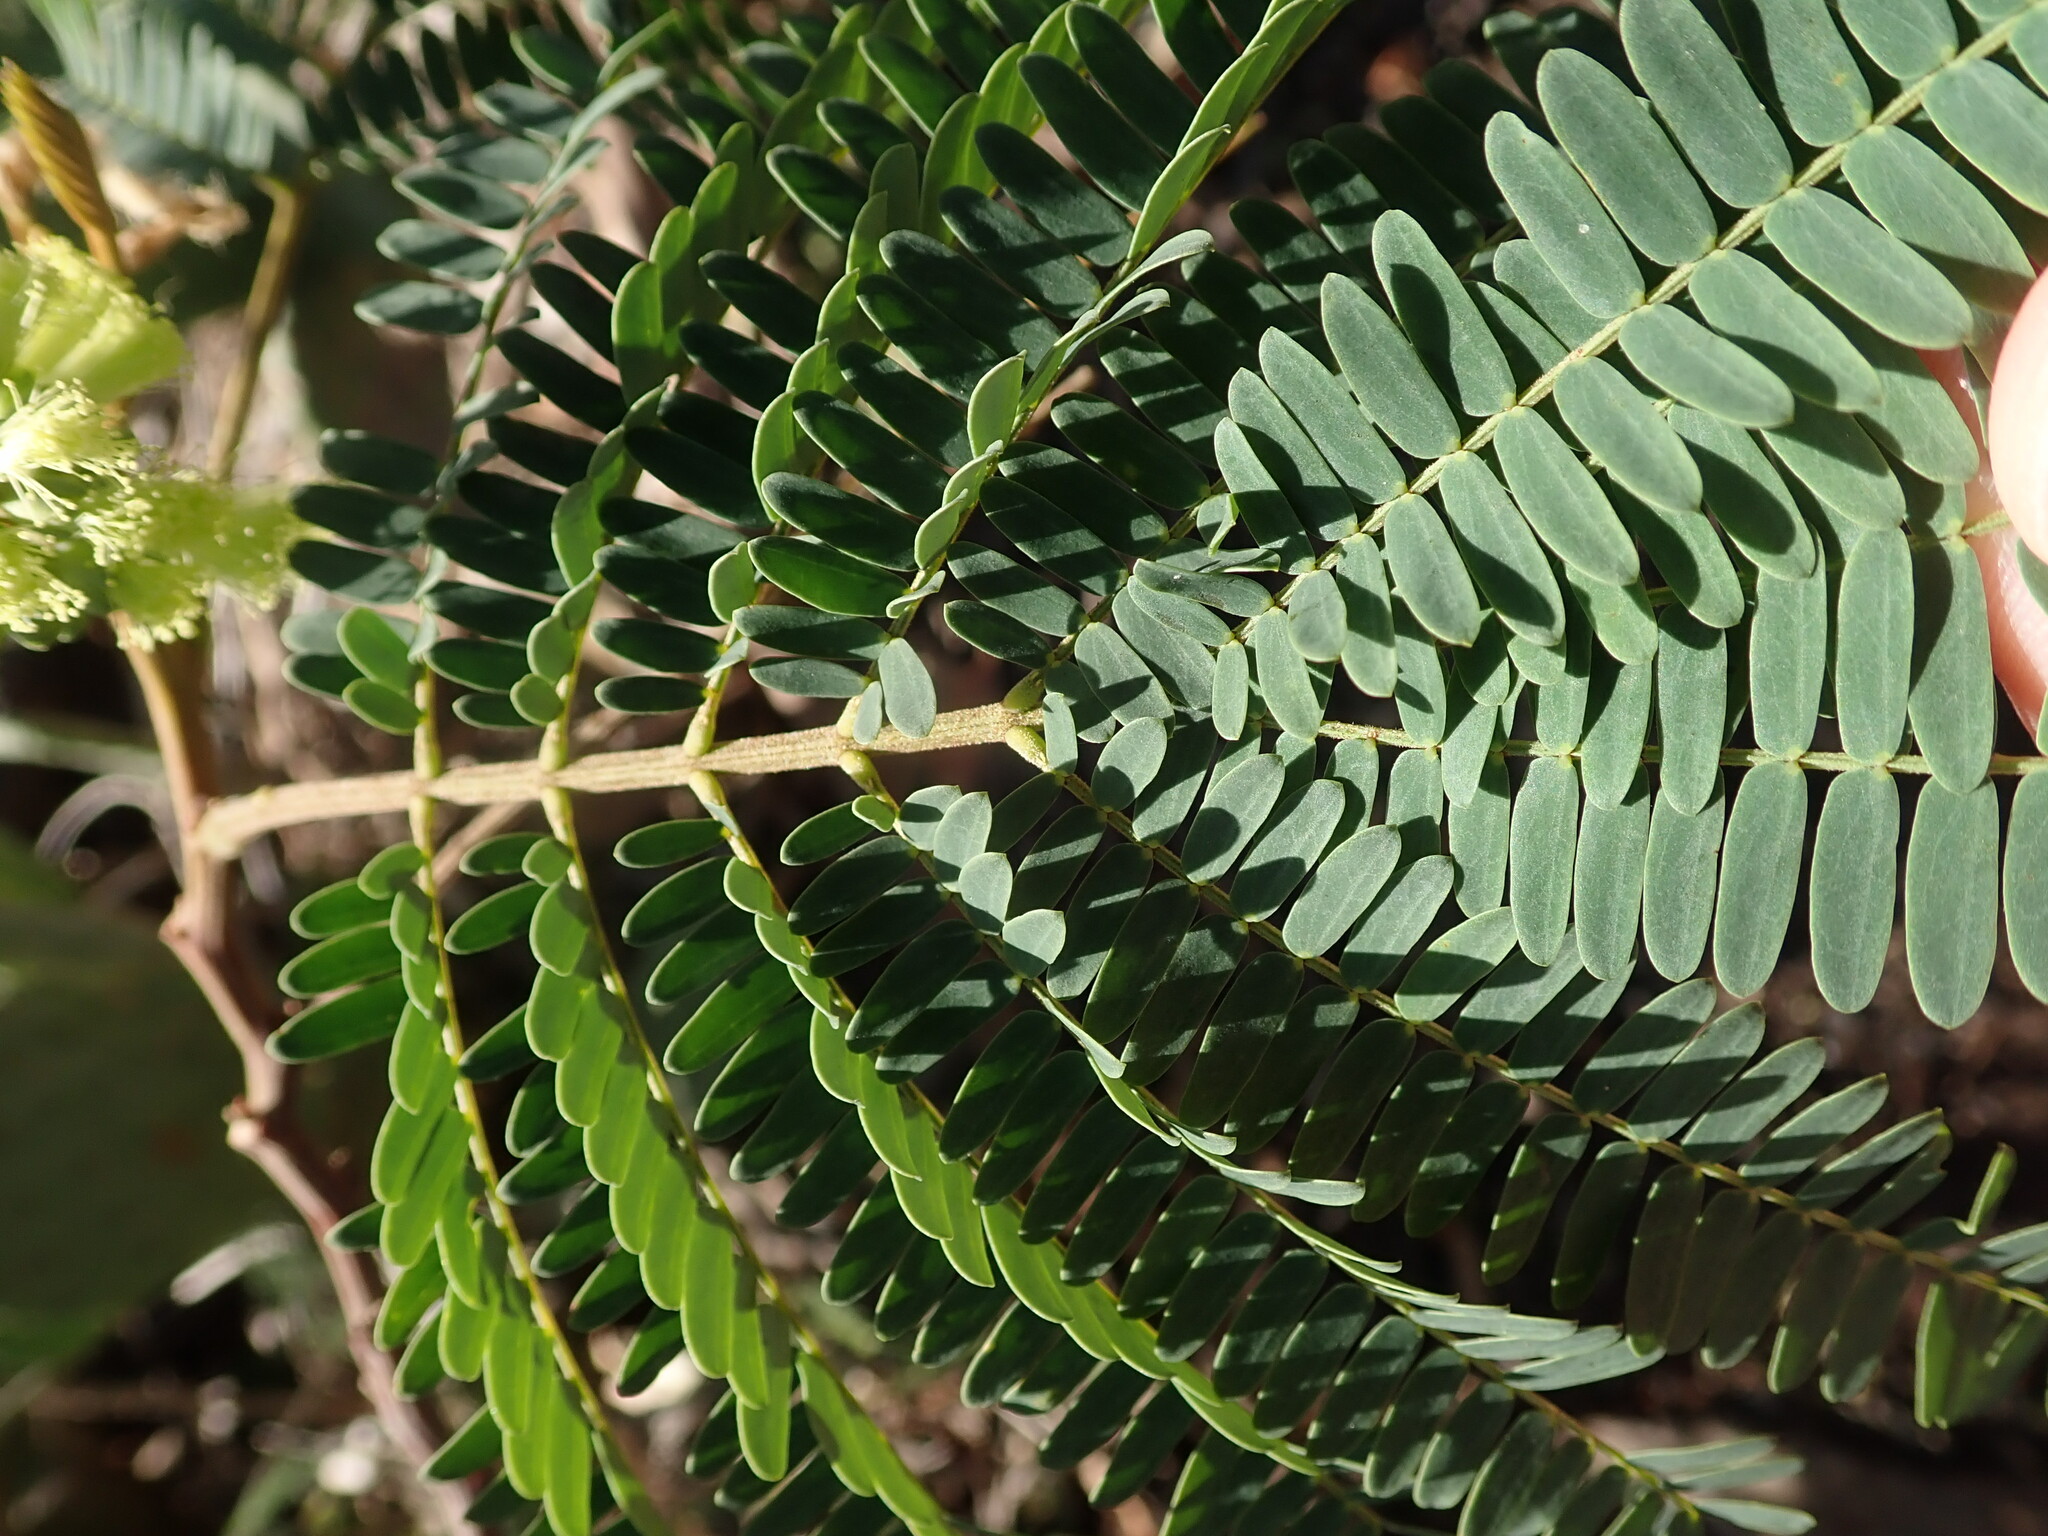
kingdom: Plantae
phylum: Tracheophyta
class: Magnoliopsida
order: Fabales
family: Fabaceae
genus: Paraserianthes
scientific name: Paraserianthes lophantha
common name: Plume albizia
